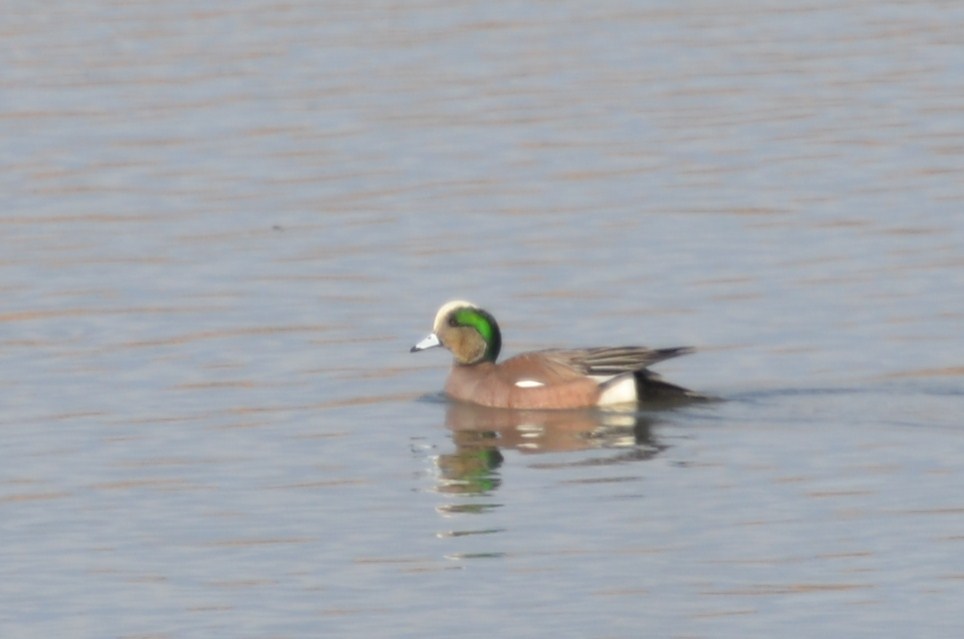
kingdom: Animalia
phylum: Chordata
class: Aves
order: Anseriformes
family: Anatidae
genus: Mareca
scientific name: Mareca americana
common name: American wigeon
